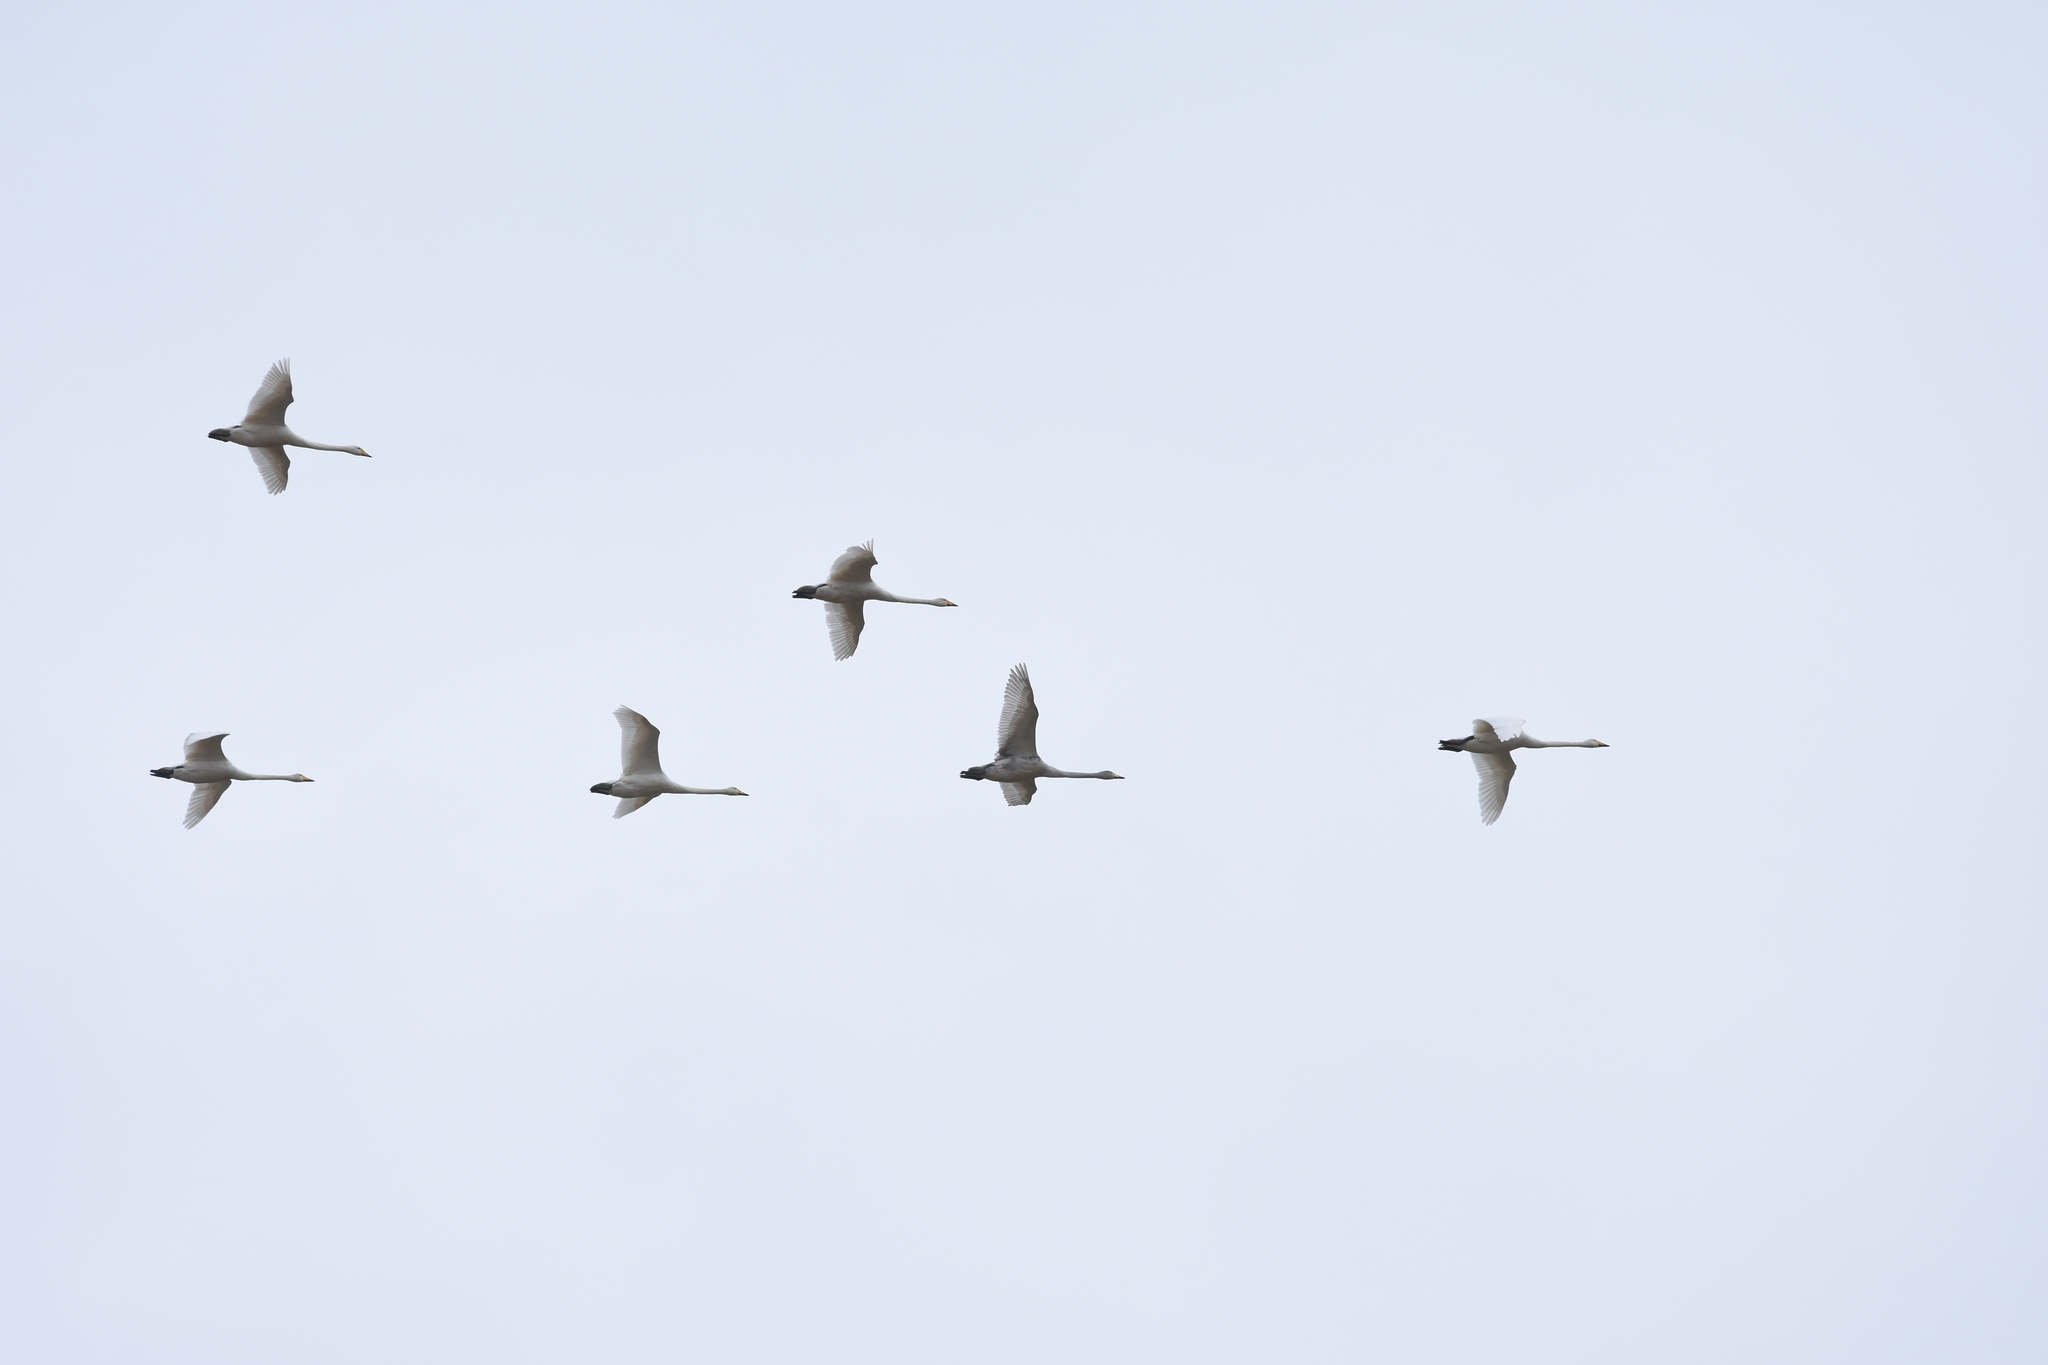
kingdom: Animalia
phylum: Chordata
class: Aves
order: Anseriformes
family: Anatidae
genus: Cygnus
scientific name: Cygnus cygnus
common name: Whooper swan
